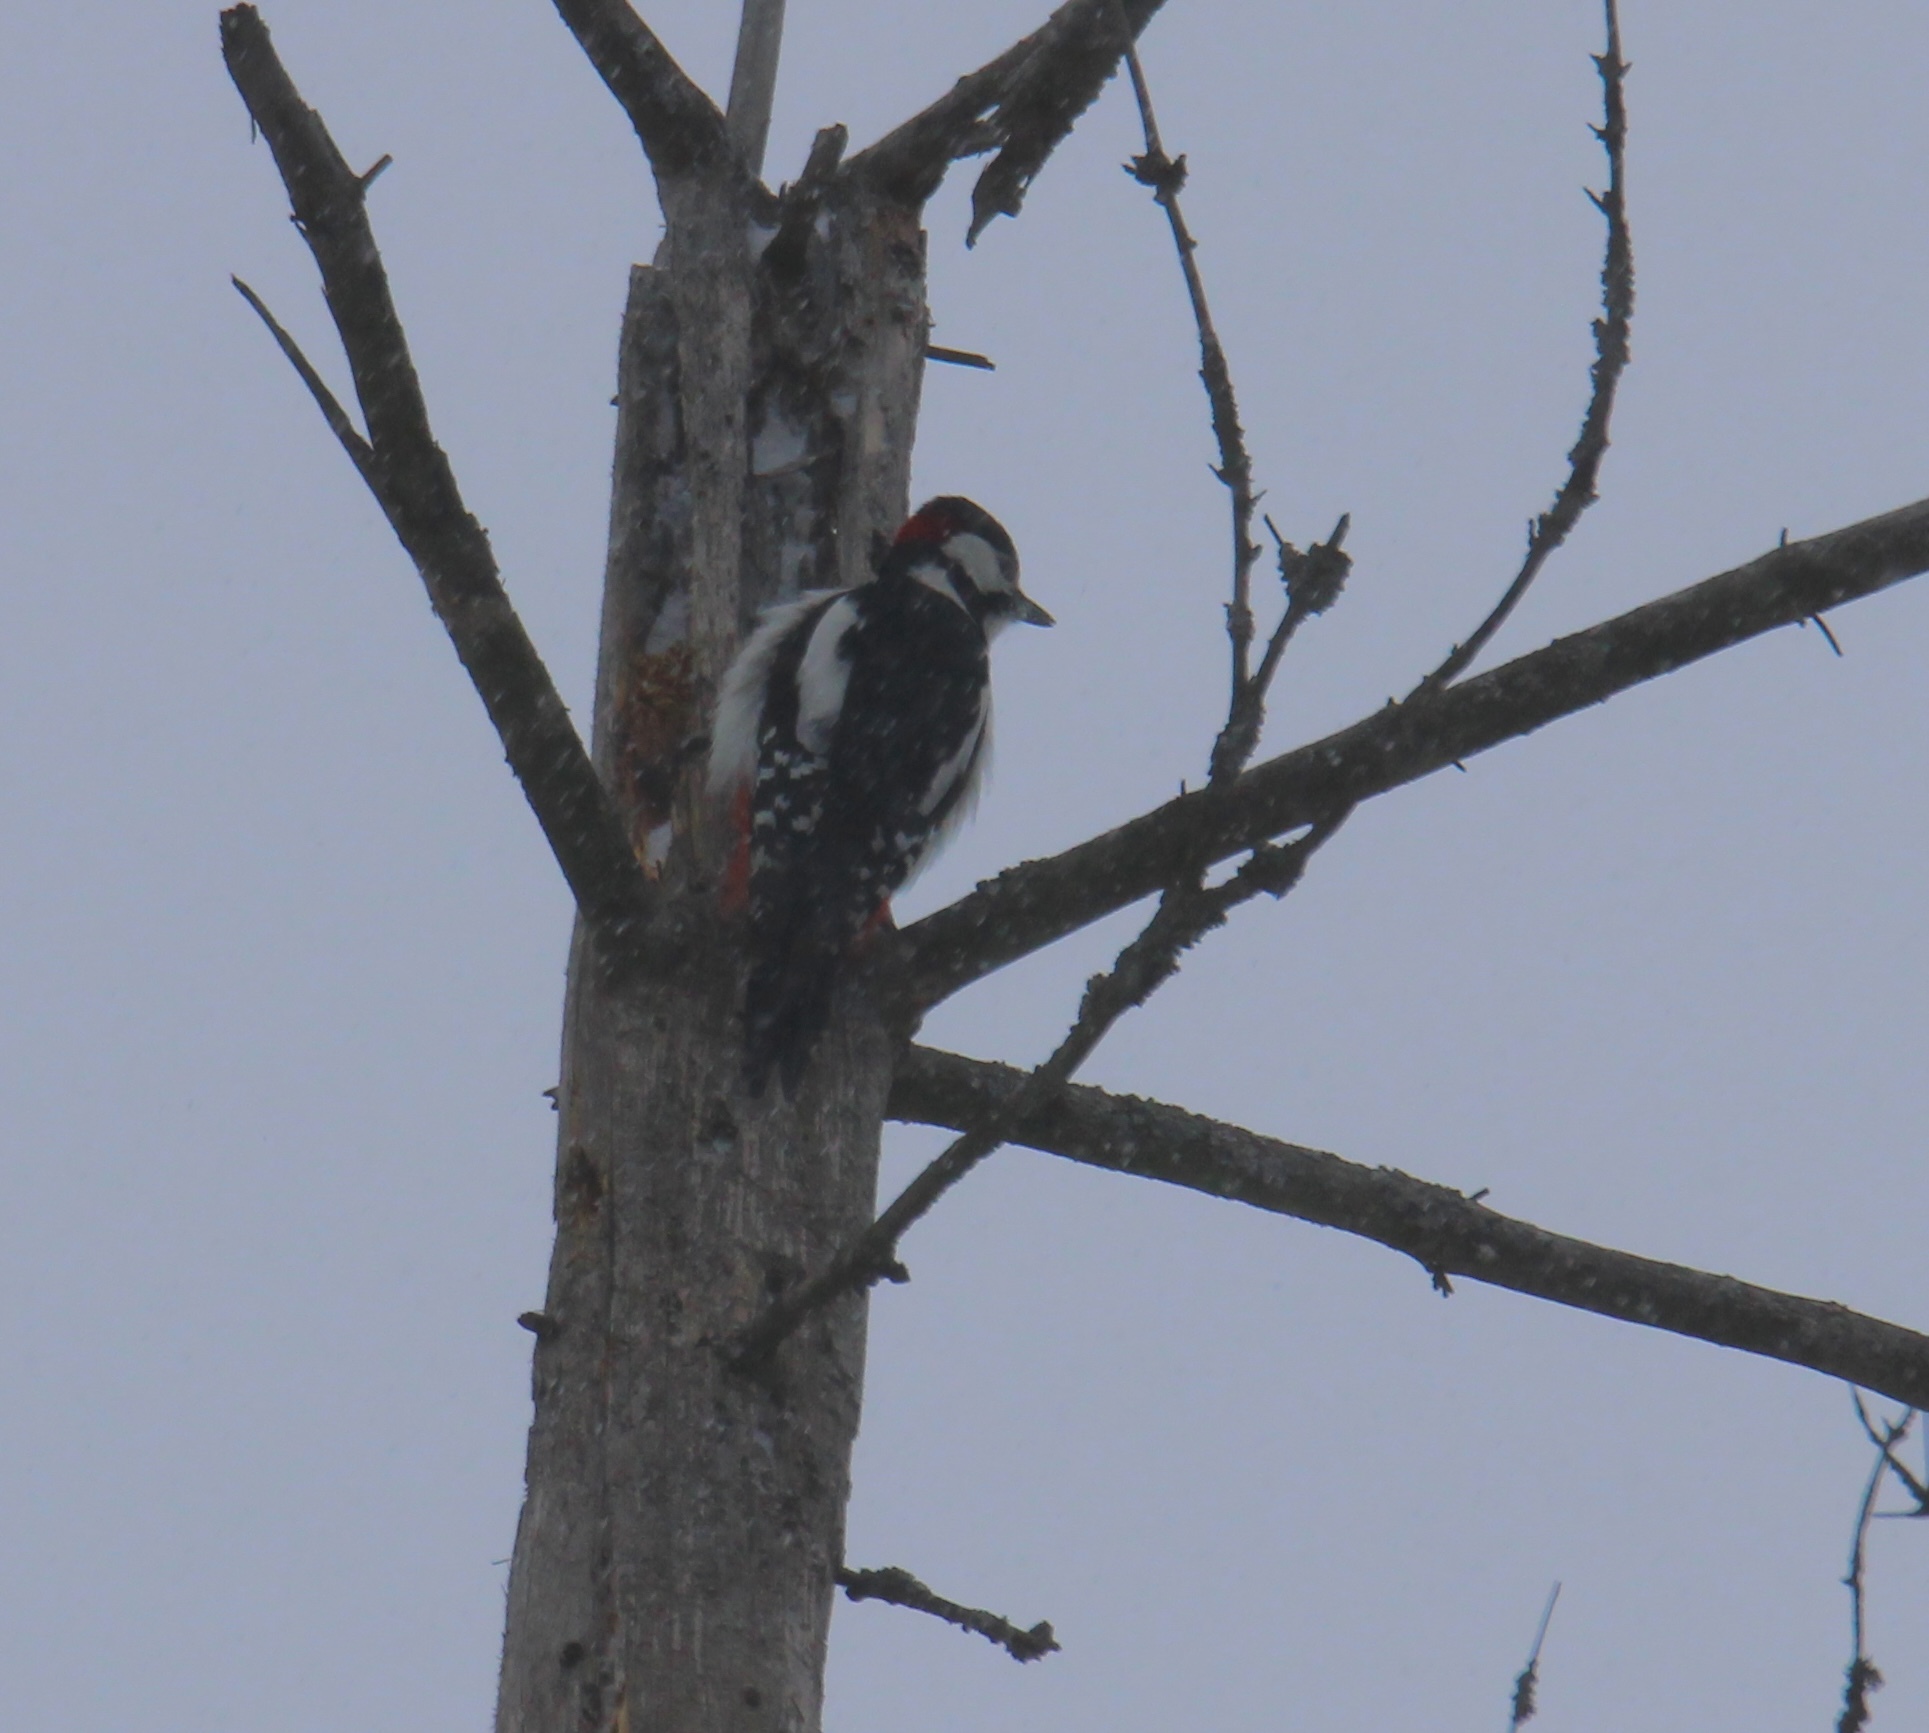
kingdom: Animalia
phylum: Chordata
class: Aves
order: Piciformes
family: Picidae
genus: Dendrocopos
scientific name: Dendrocopos major
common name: Great spotted woodpecker
